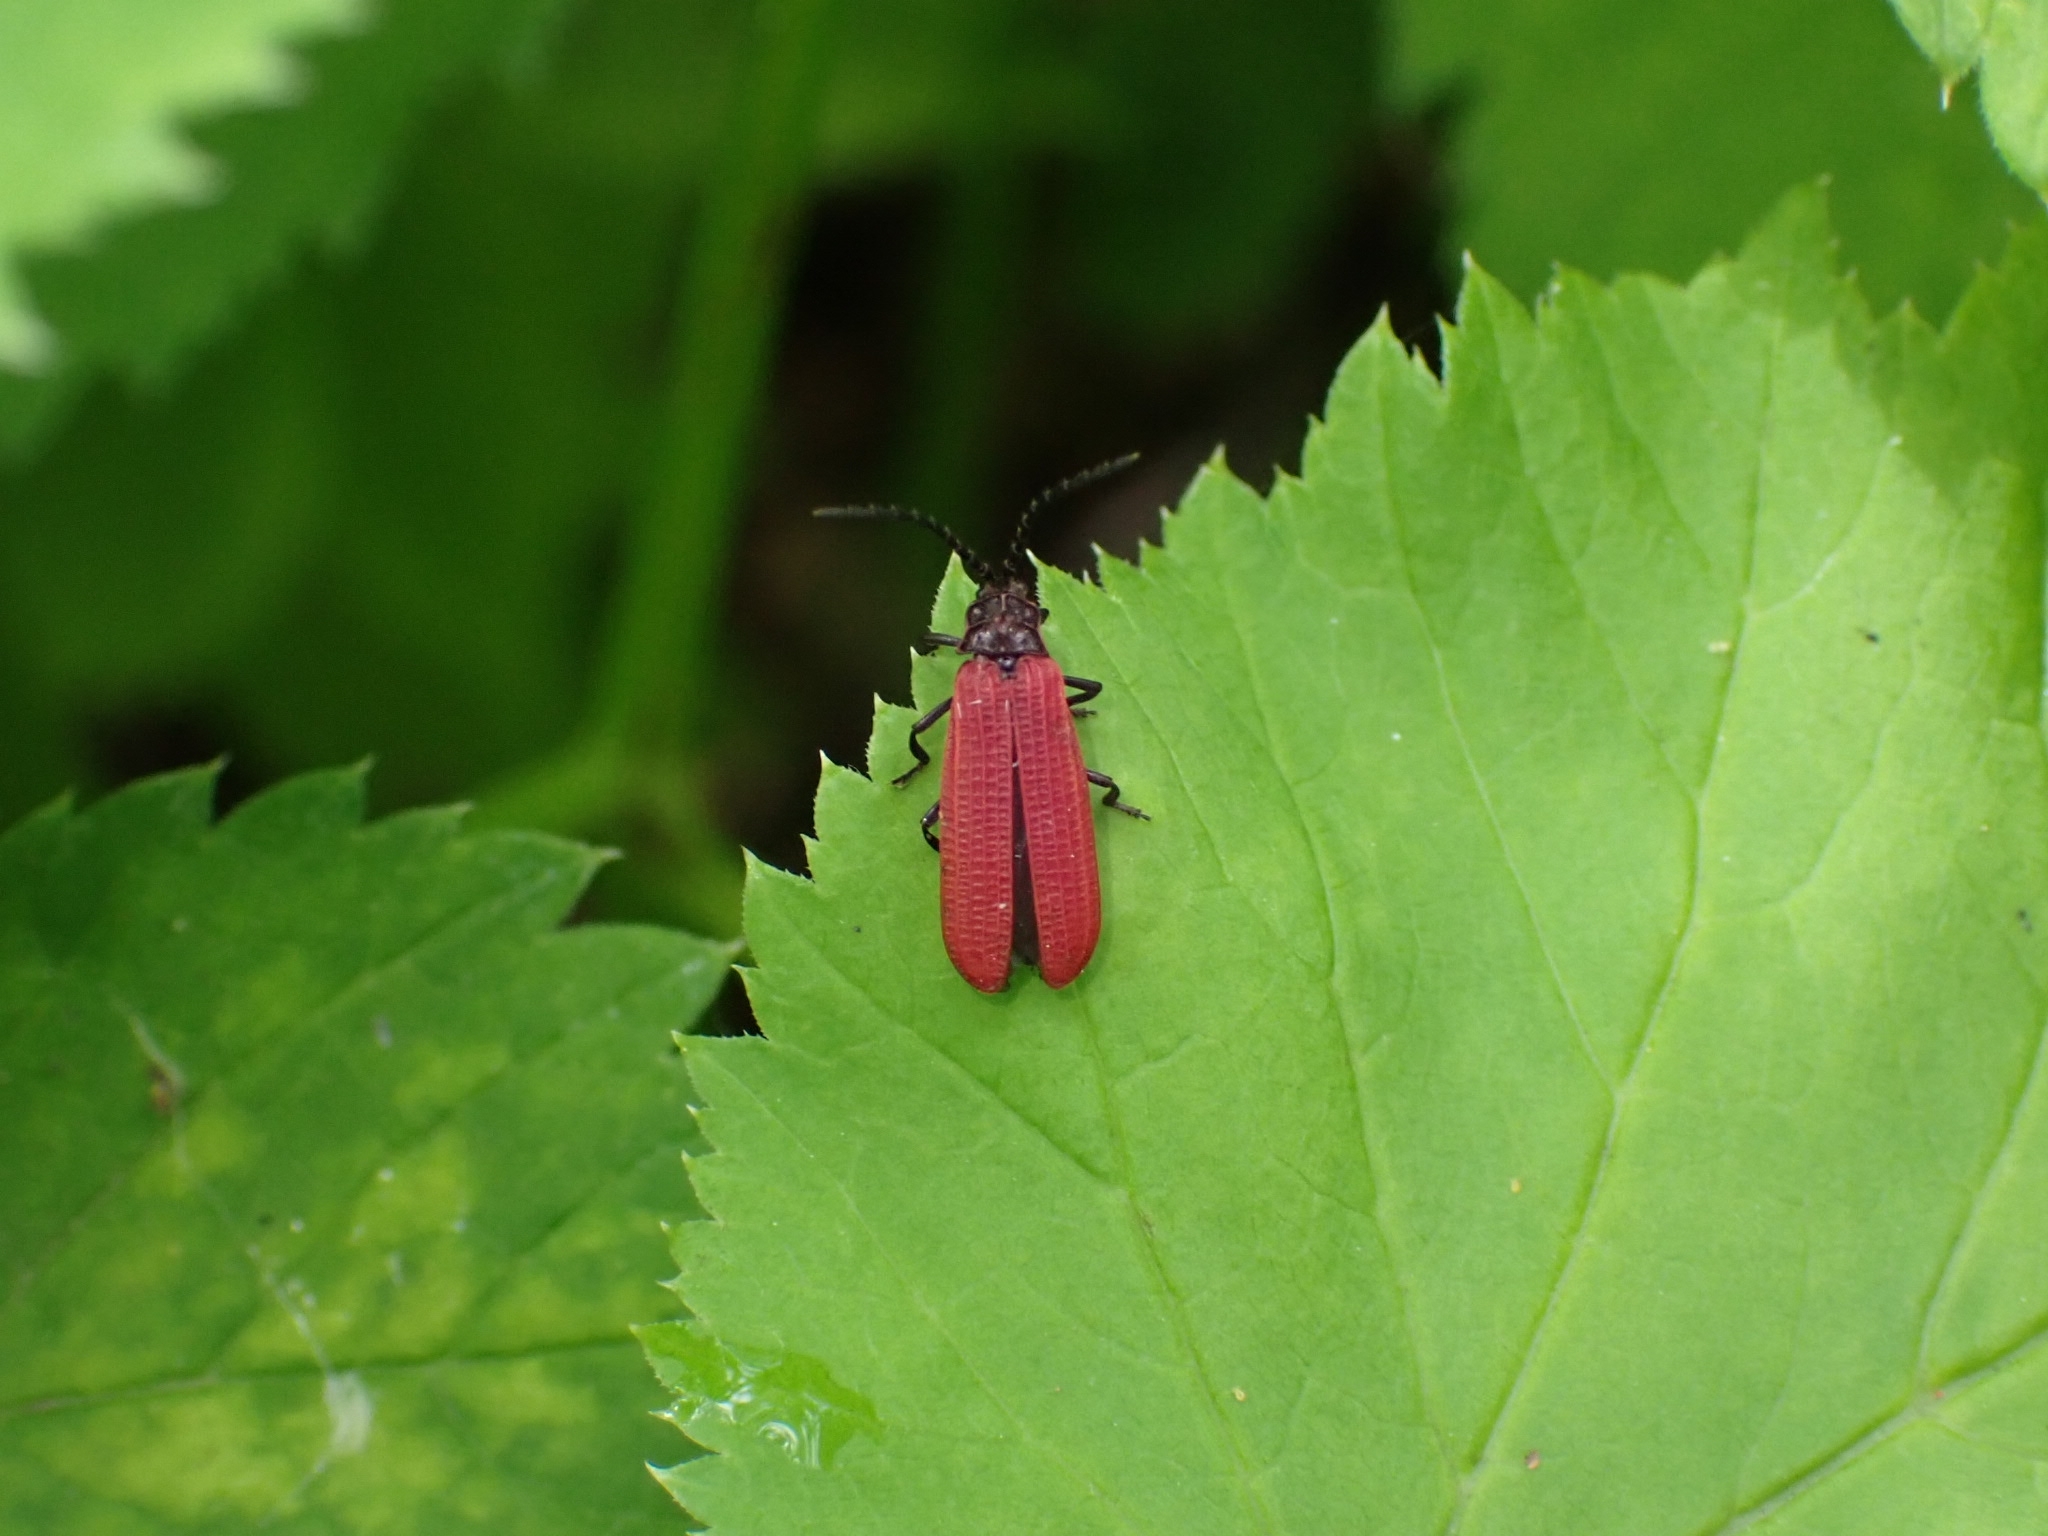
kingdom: Animalia
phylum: Arthropoda
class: Insecta
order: Coleoptera
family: Lycidae
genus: Xylobanellus
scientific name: Xylobanellus erythropterus
